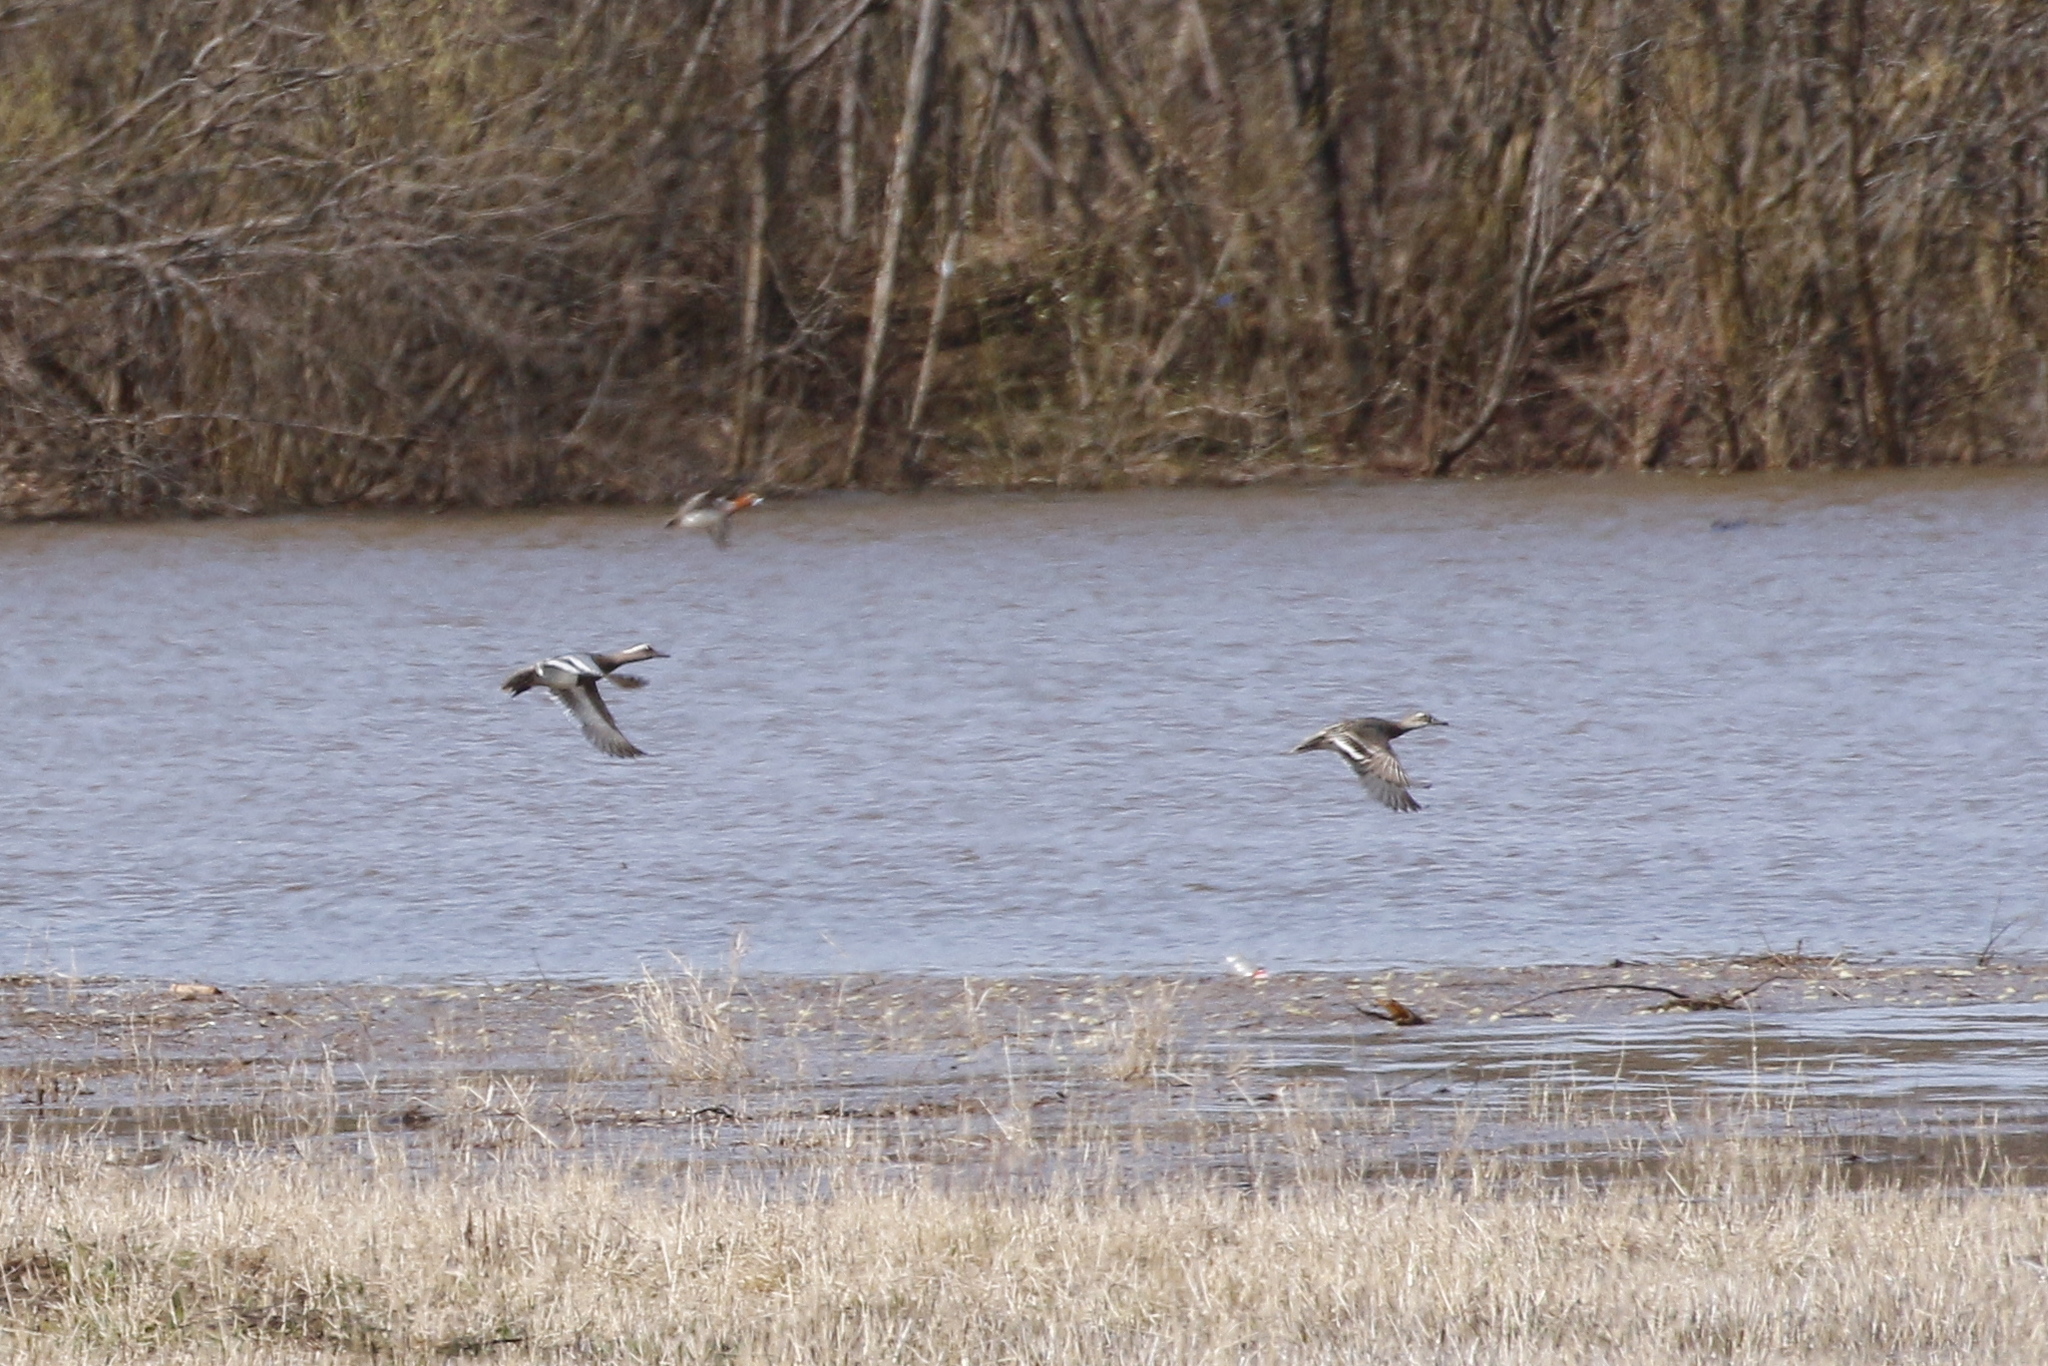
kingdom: Animalia
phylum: Chordata
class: Aves
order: Anseriformes
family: Anatidae
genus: Spatula
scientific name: Spatula querquedula
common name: Garganey
